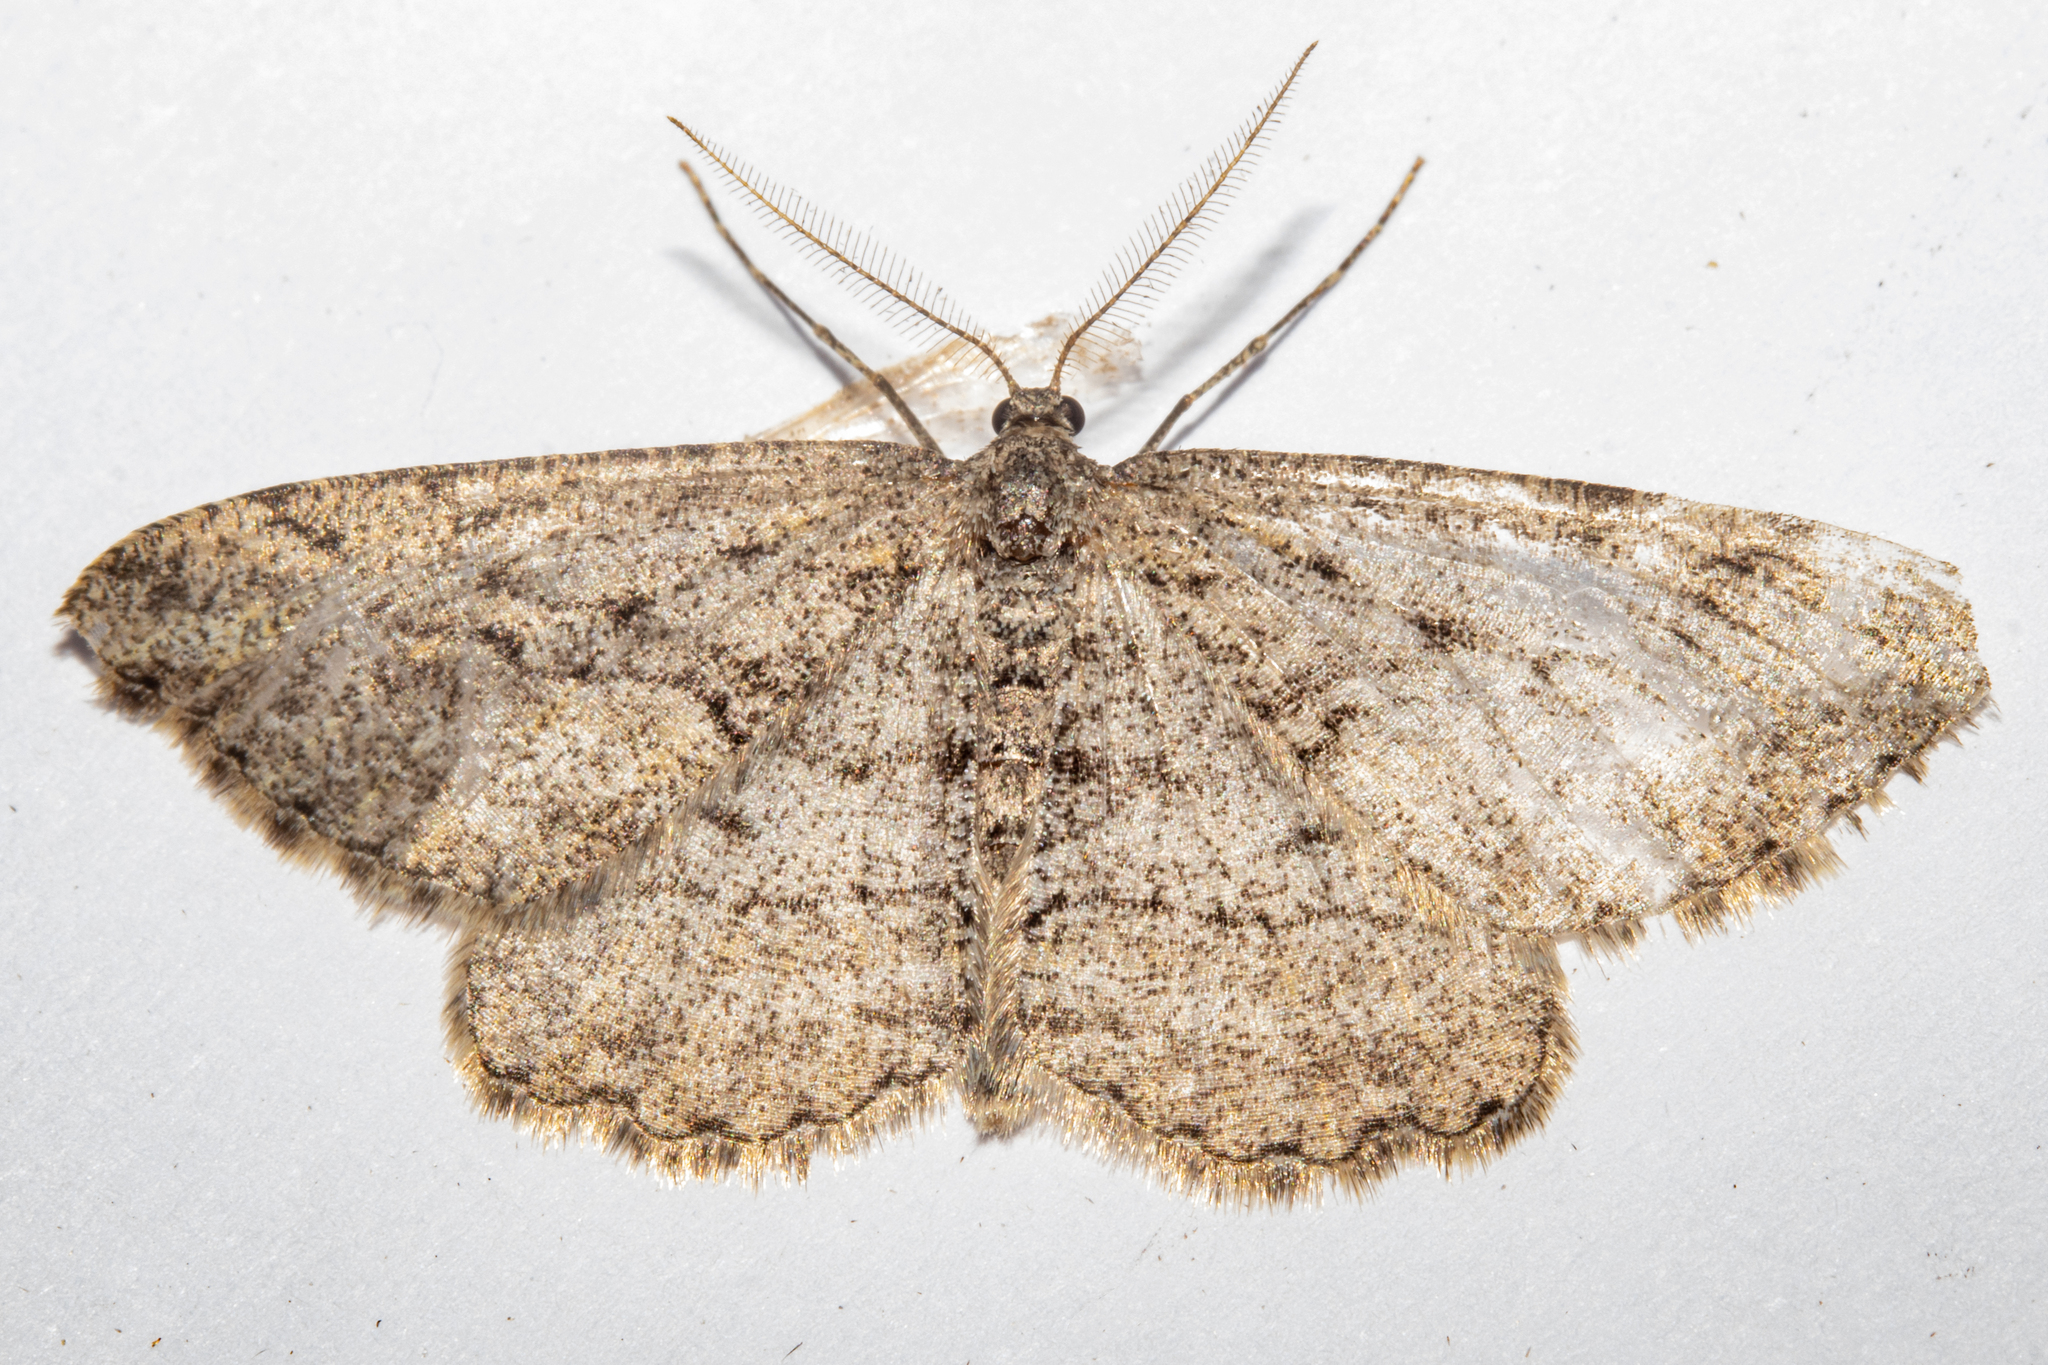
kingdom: Animalia
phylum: Arthropoda
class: Insecta
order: Lepidoptera
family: Geometridae
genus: Zermizinga
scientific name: Zermizinga indocilisaria
